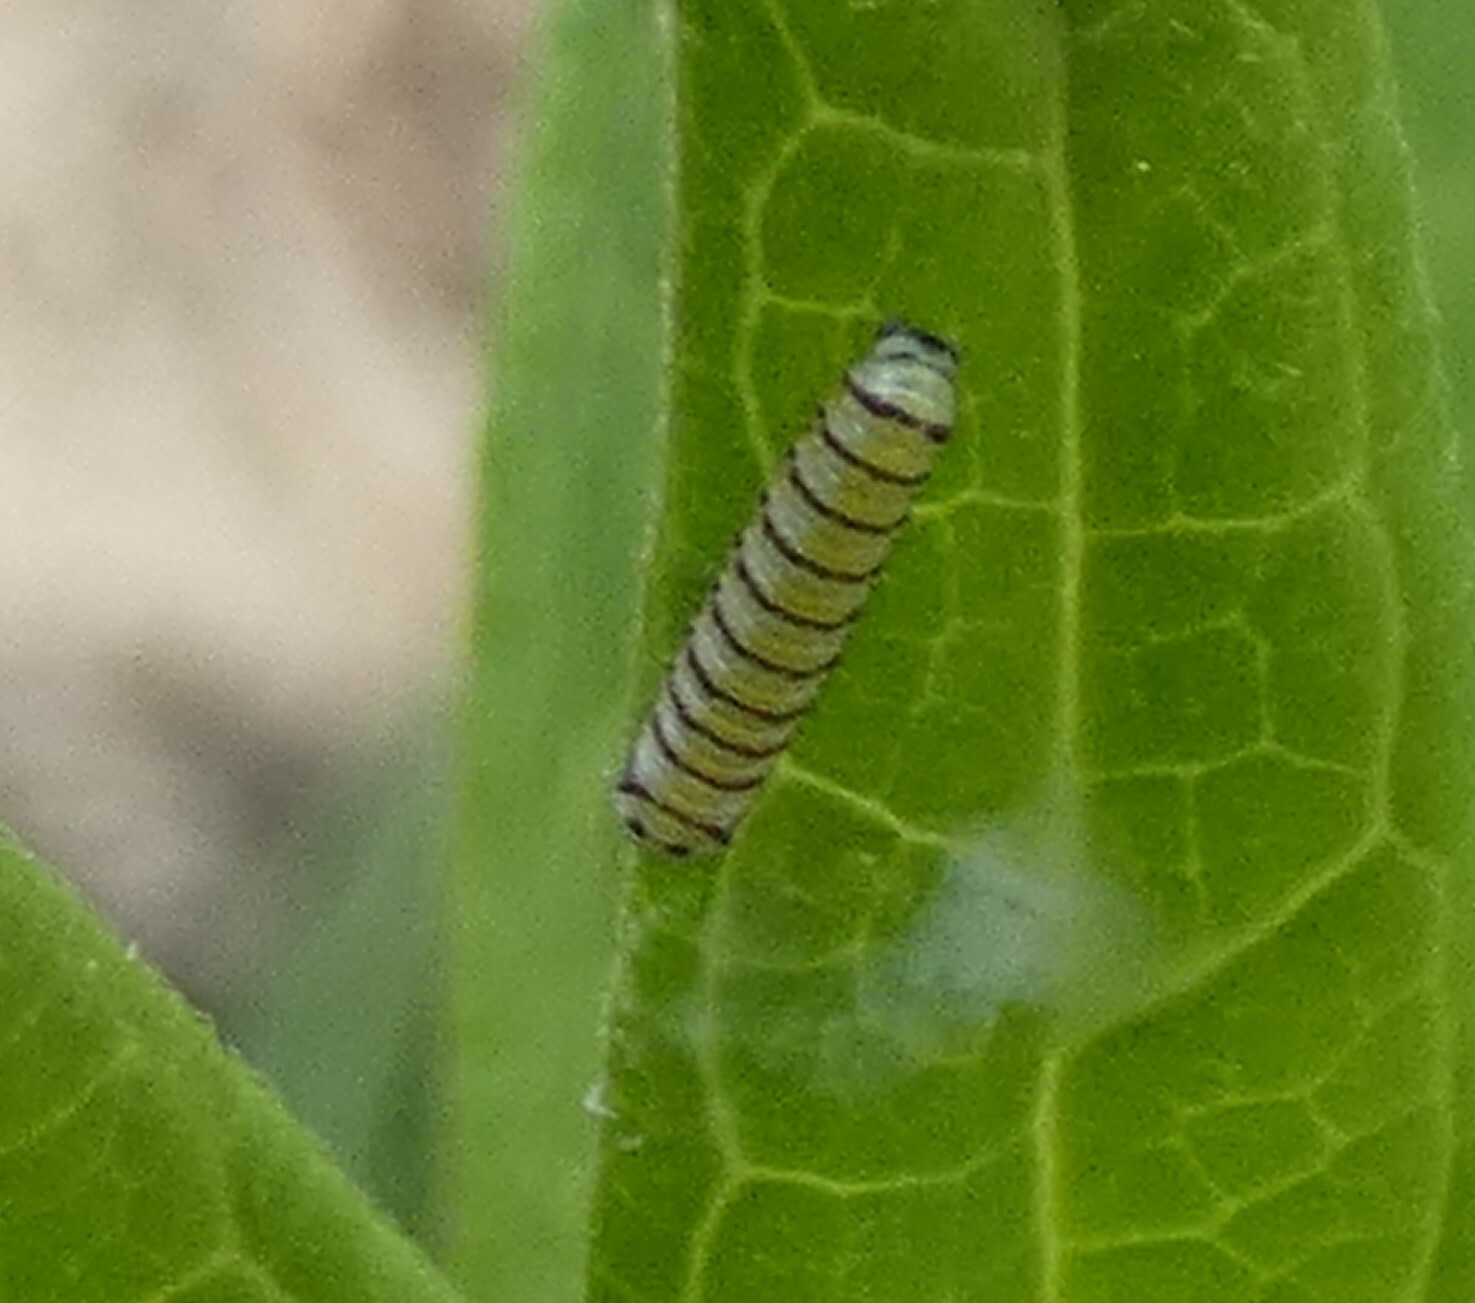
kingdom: Animalia
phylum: Arthropoda
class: Insecta
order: Lepidoptera
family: Nymphalidae
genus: Danaus
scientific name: Danaus plexippus
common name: Monarch
